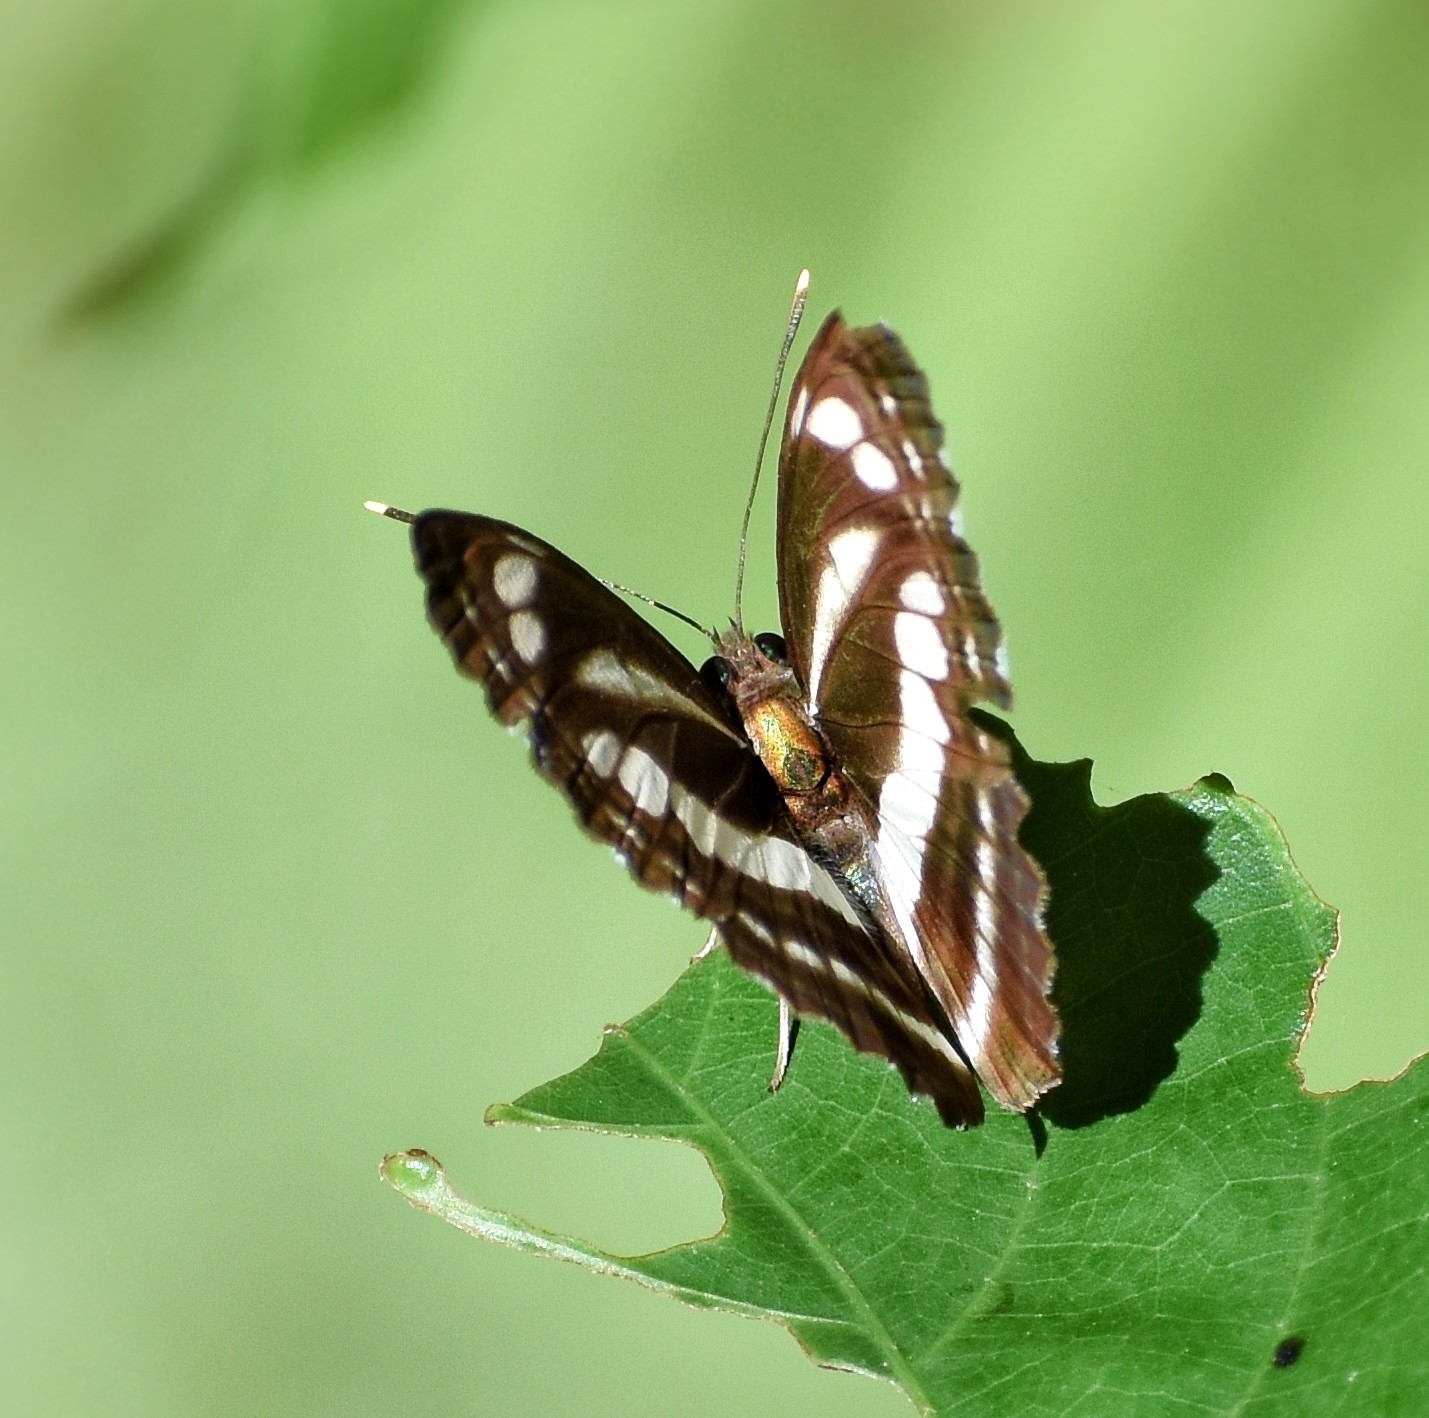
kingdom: Animalia
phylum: Arthropoda
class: Insecta
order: Lepidoptera
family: Nymphalidae
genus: Neptis
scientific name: Neptis clinia
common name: Southern sullied sailer
